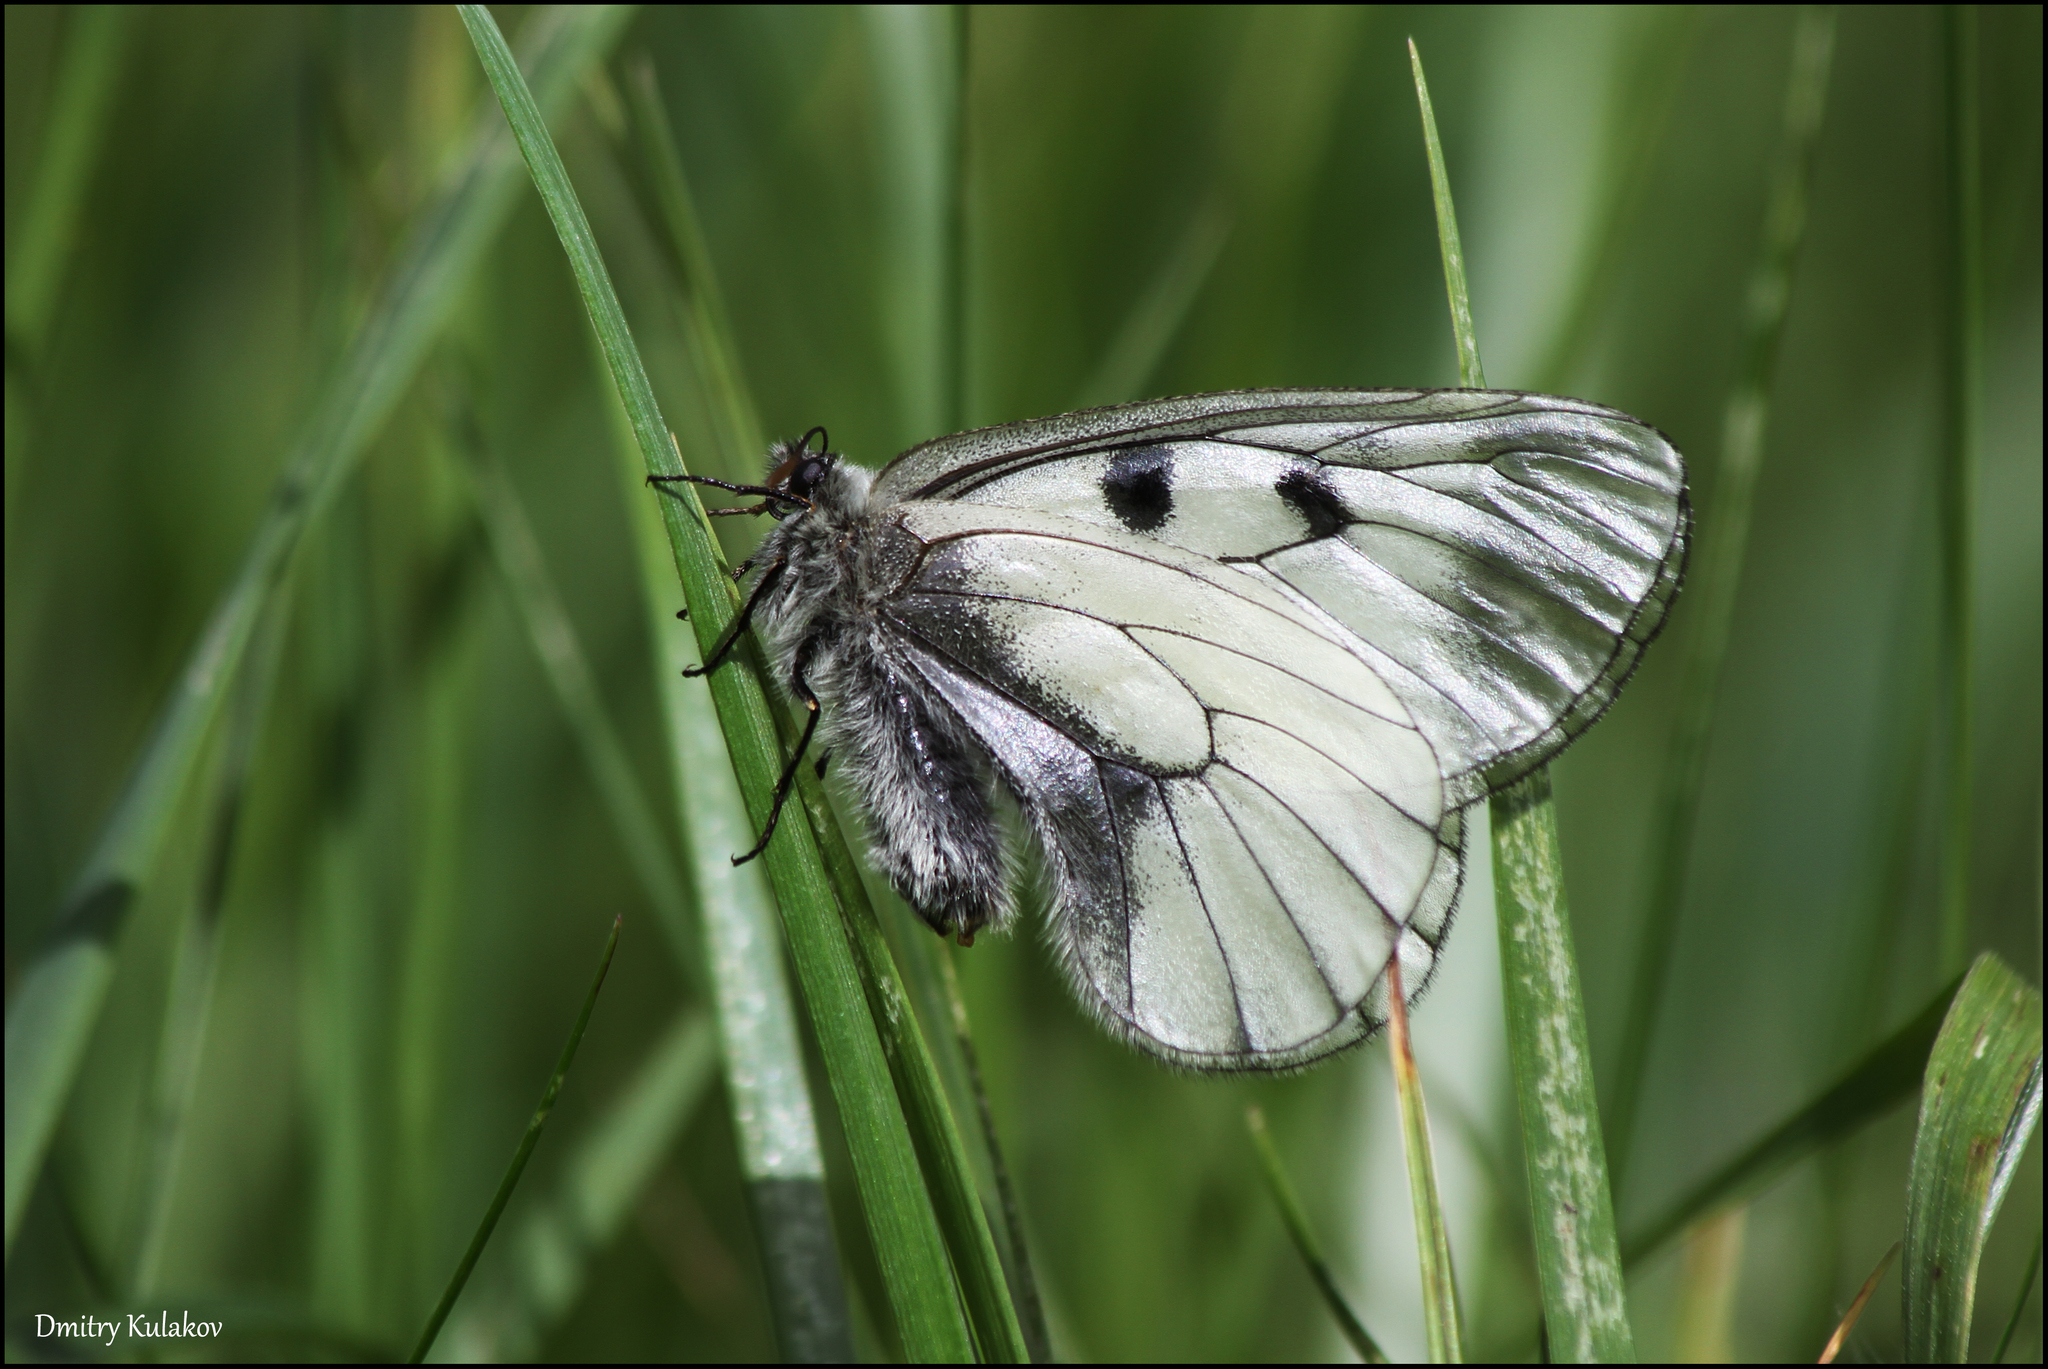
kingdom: Animalia
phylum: Arthropoda
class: Insecta
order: Lepidoptera
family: Papilionidae
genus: Parnassius
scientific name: Parnassius mnemosyne
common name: Clouded apollo
